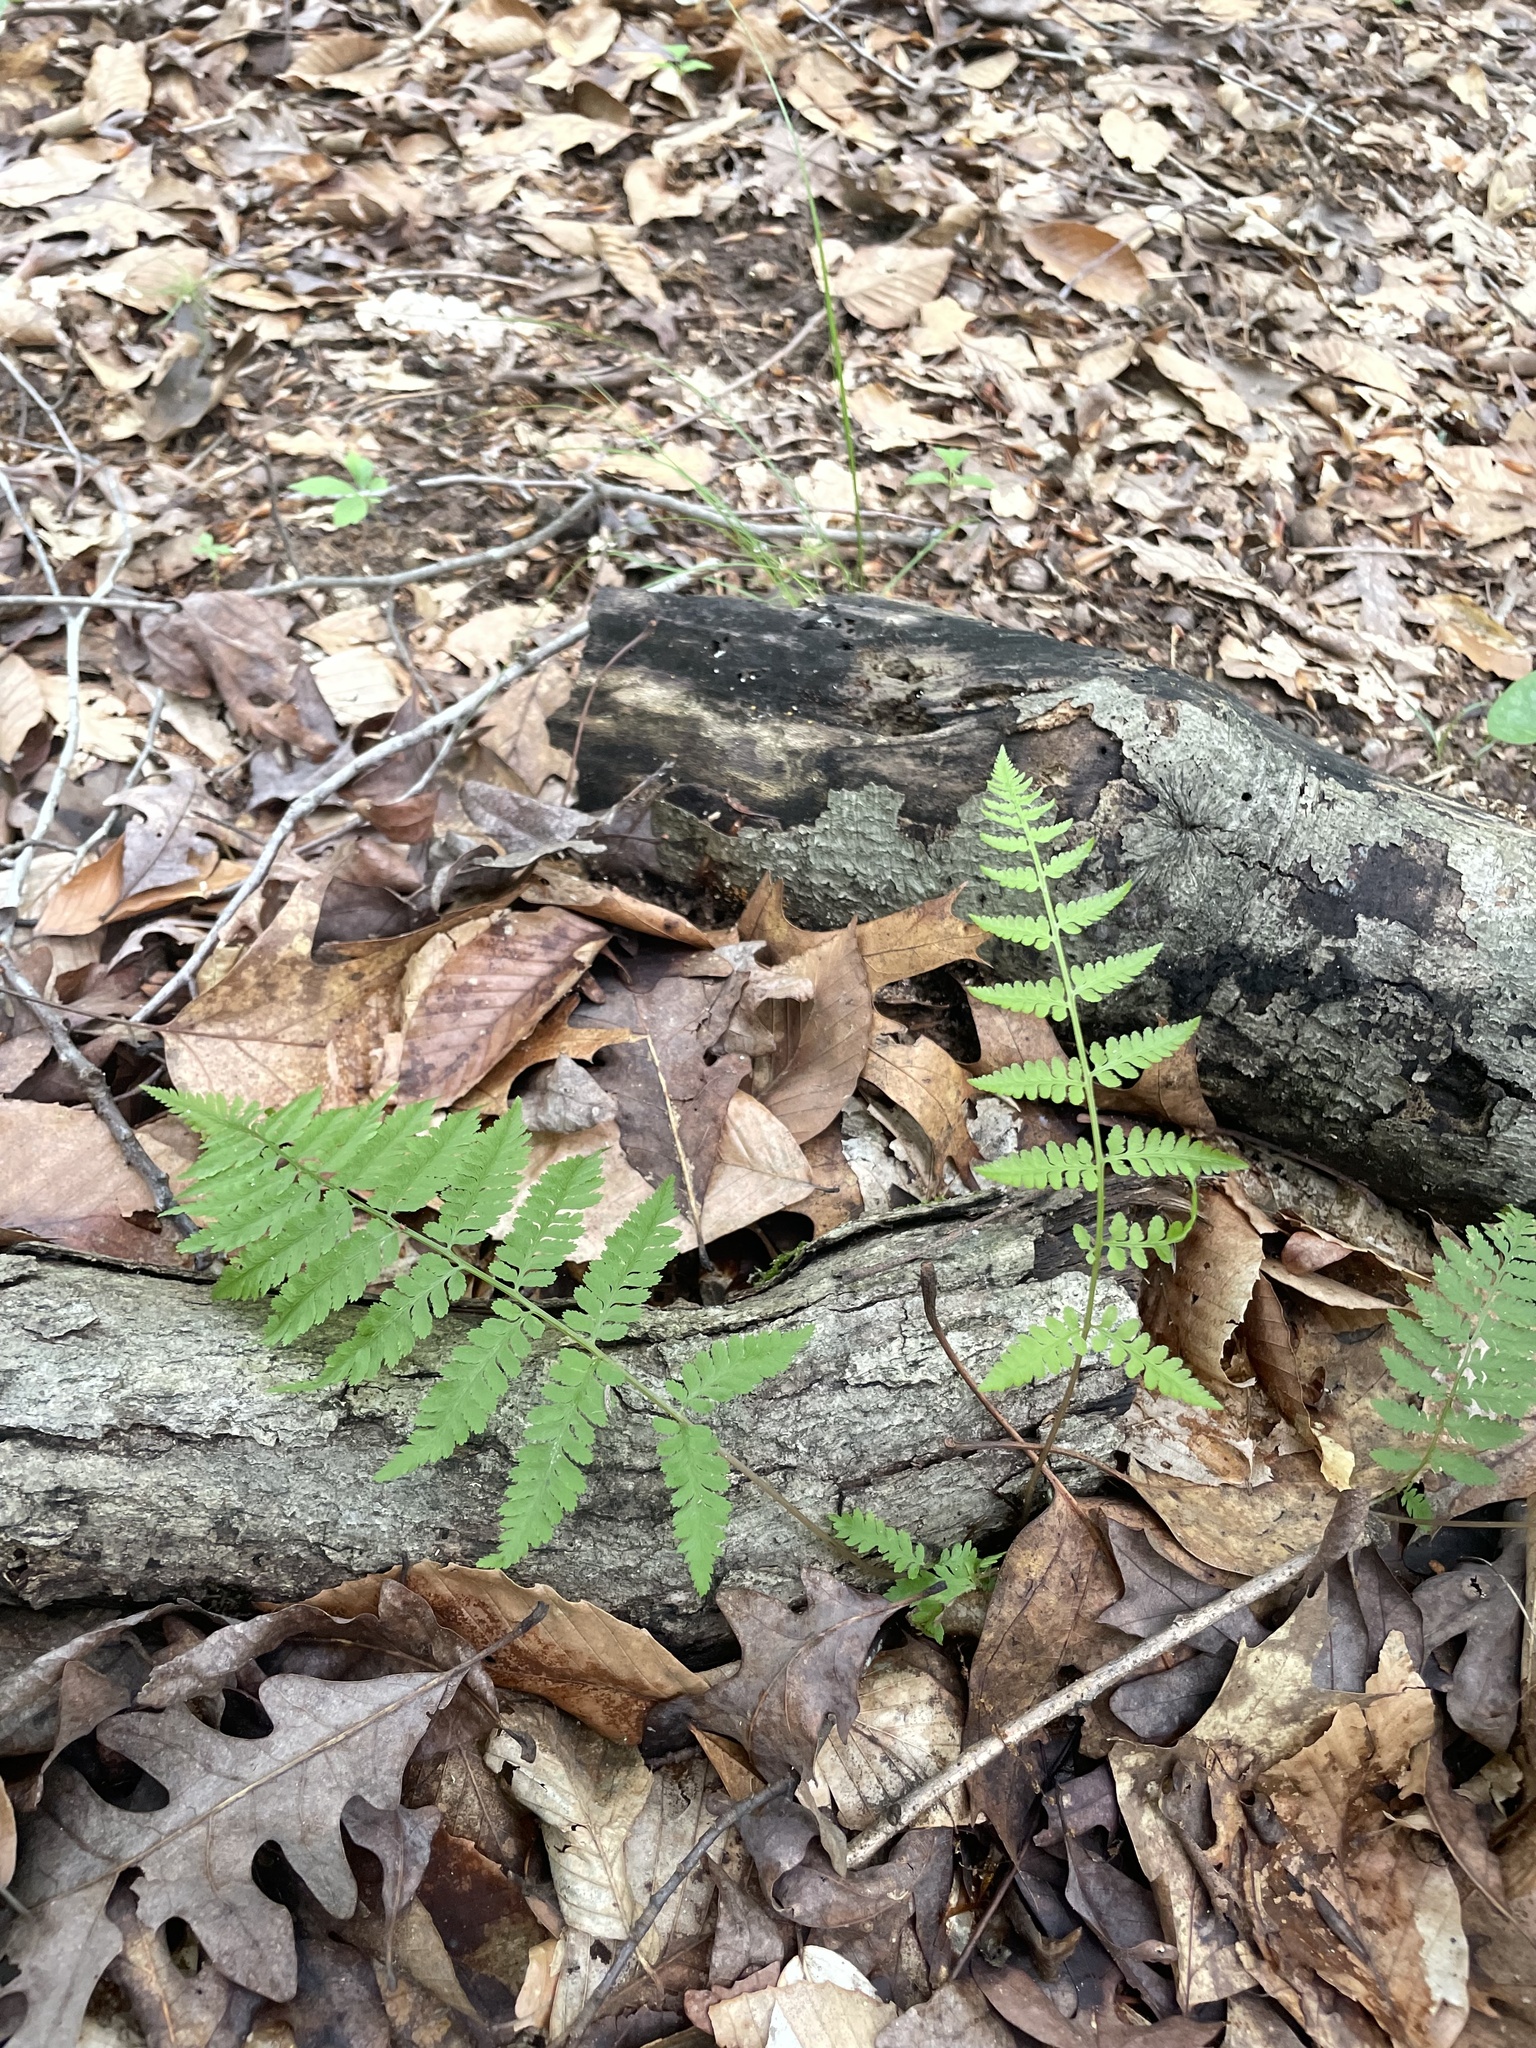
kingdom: Plantae
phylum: Tracheophyta
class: Polypodiopsida
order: Polypodiales
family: Athyriaceae
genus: Athyrium
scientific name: Athyrium asplenioides
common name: Southern lady fern
